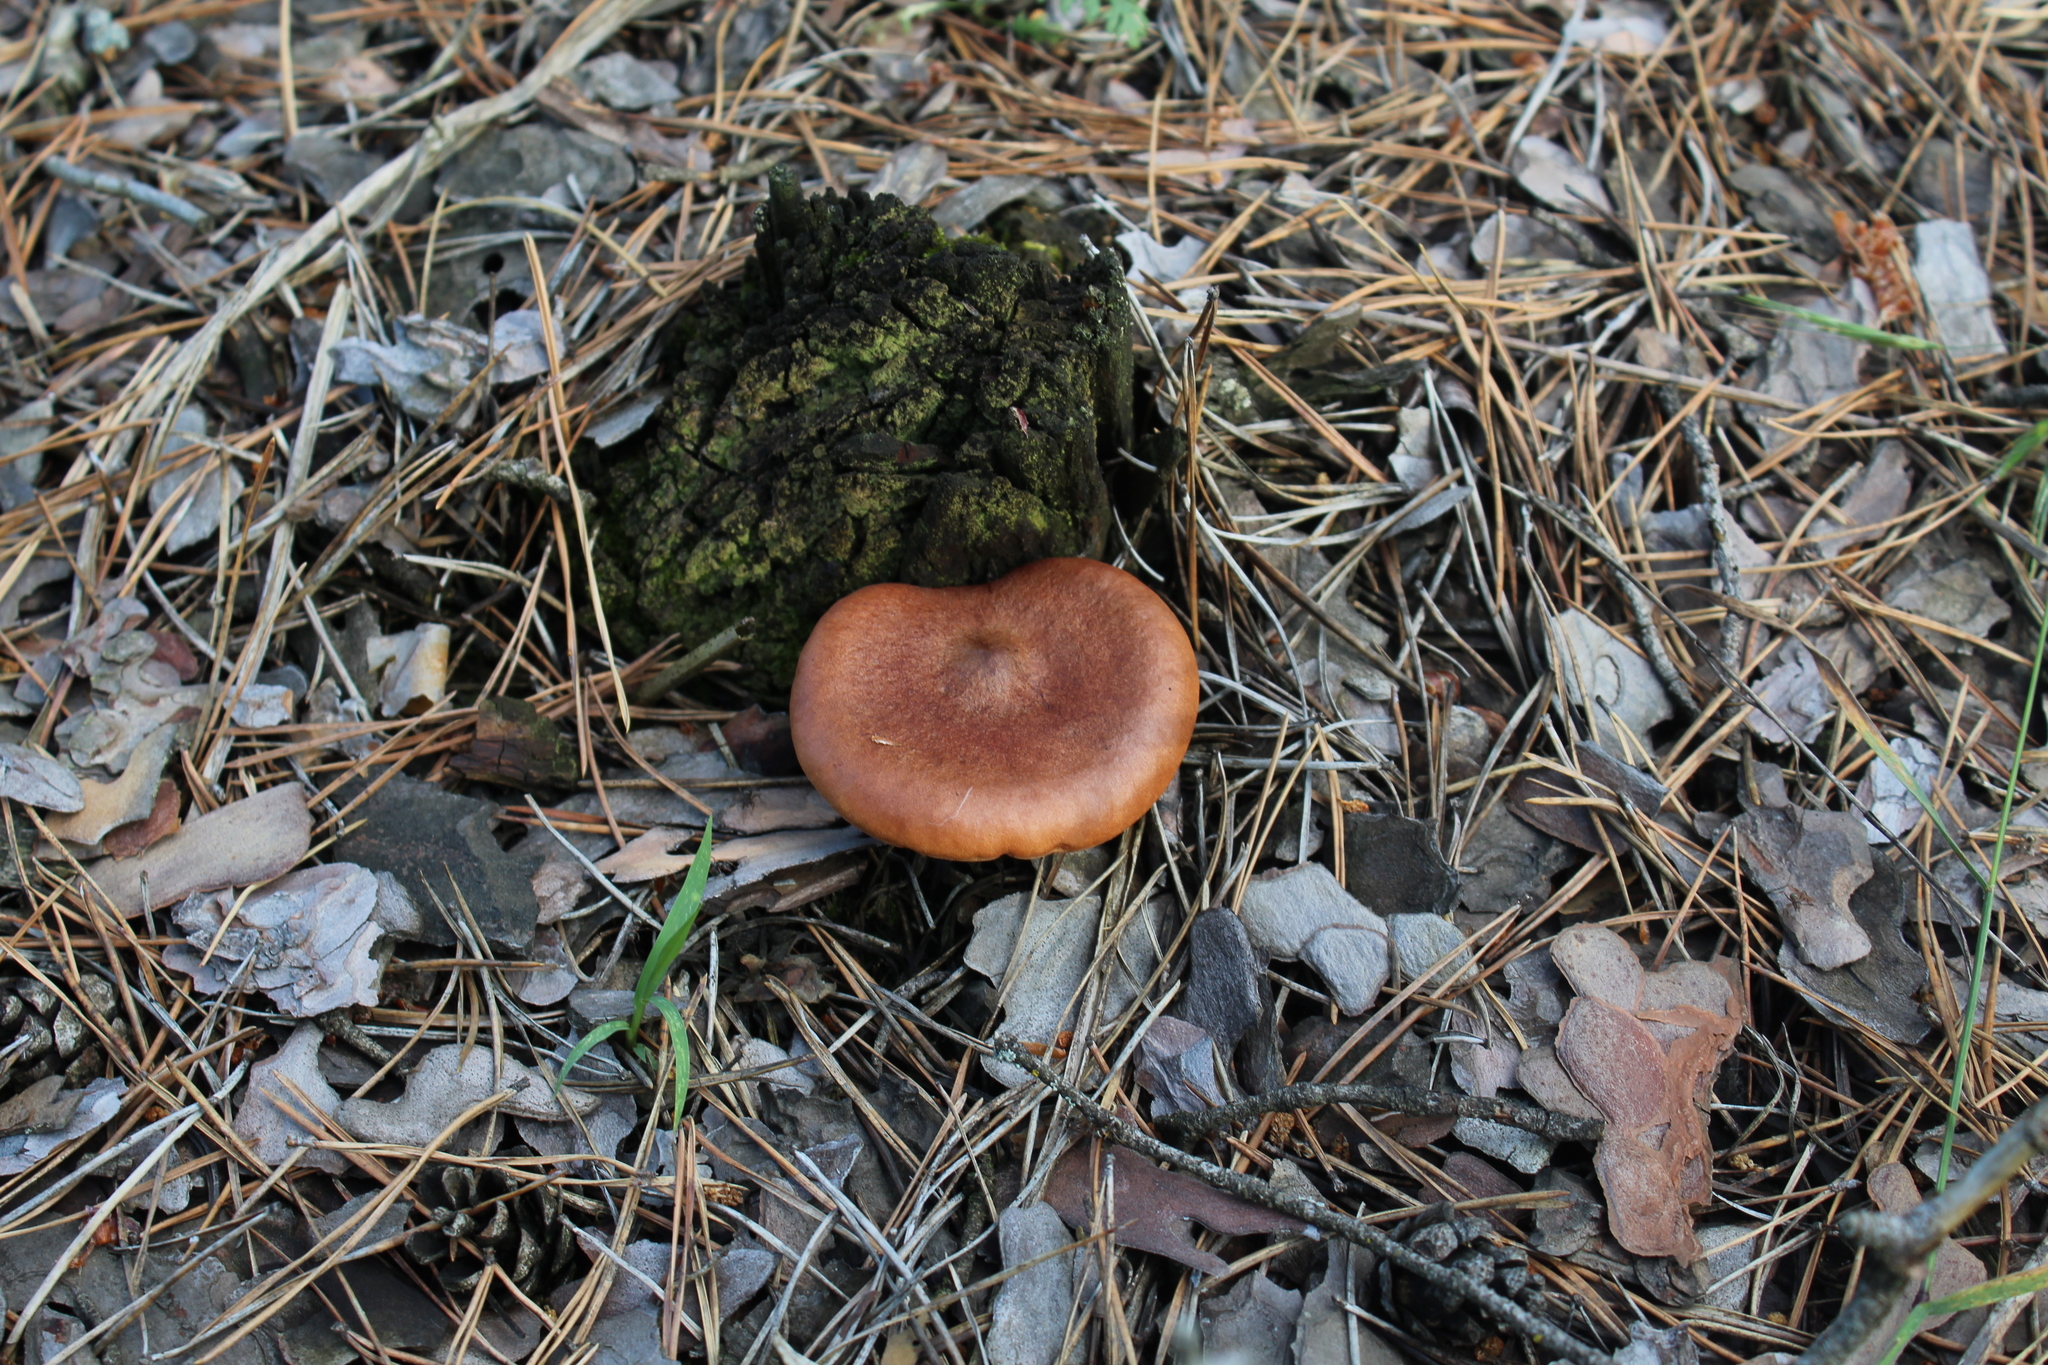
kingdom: Fungi
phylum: Basidiomycota
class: Agaricomycetes
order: Russulales
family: Russulaceae
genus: Lactarius
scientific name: Lactarius rufus
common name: Rufous milk-cap
